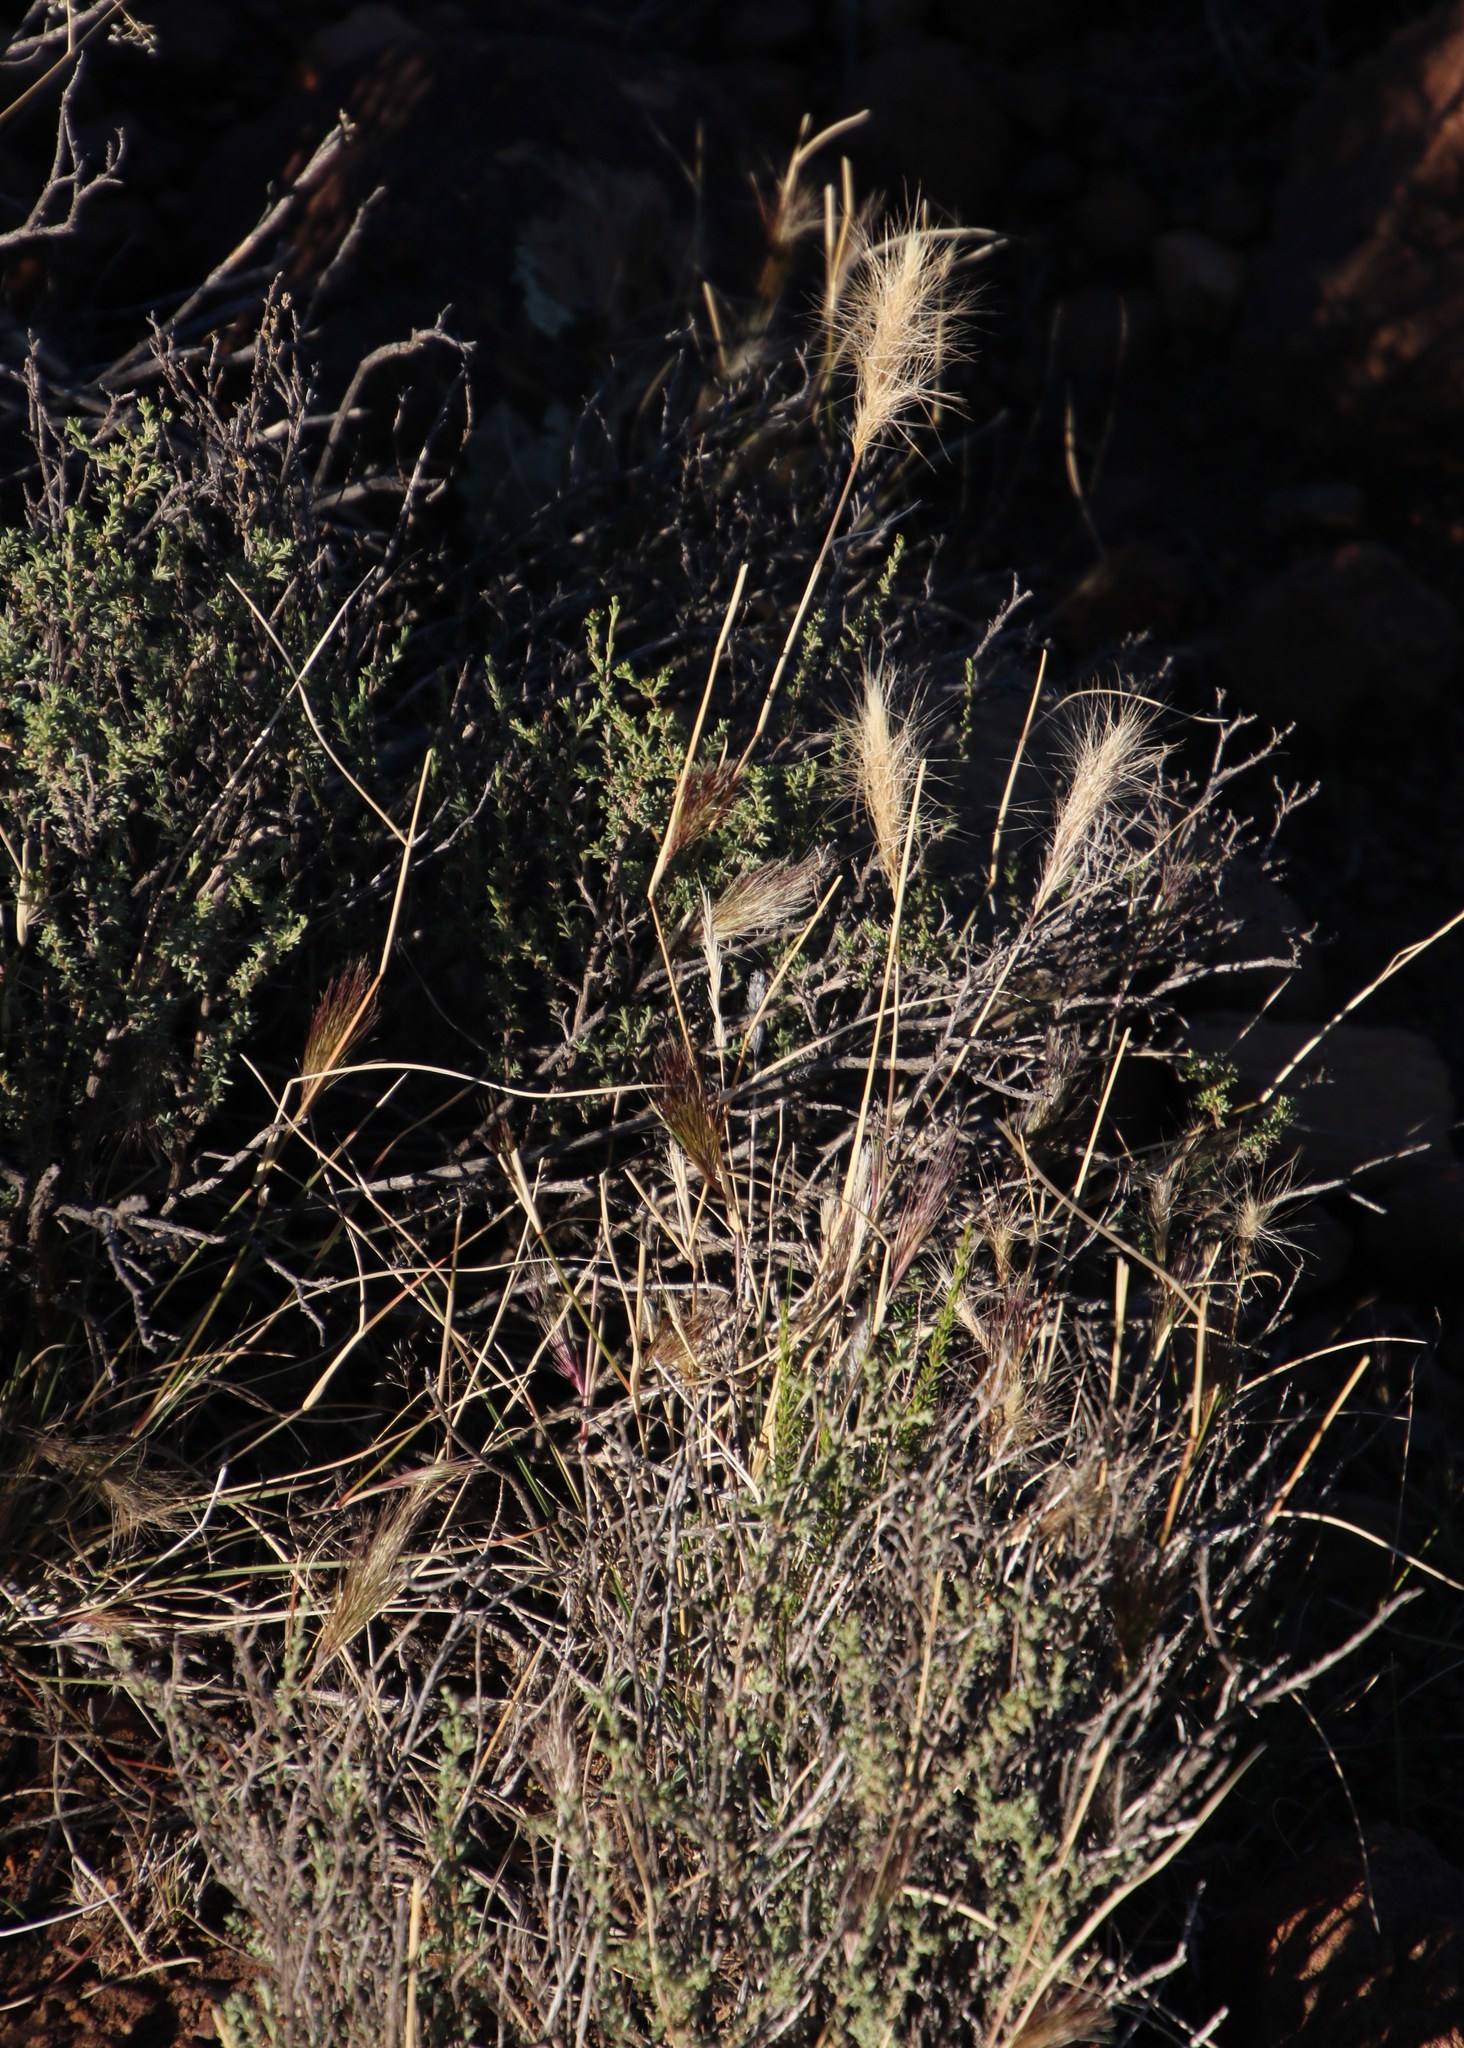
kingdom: Plantae
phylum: Tracheophyta
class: Liliopsida
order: Poales
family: Poaceae
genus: Aristida
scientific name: Aristida congesta
